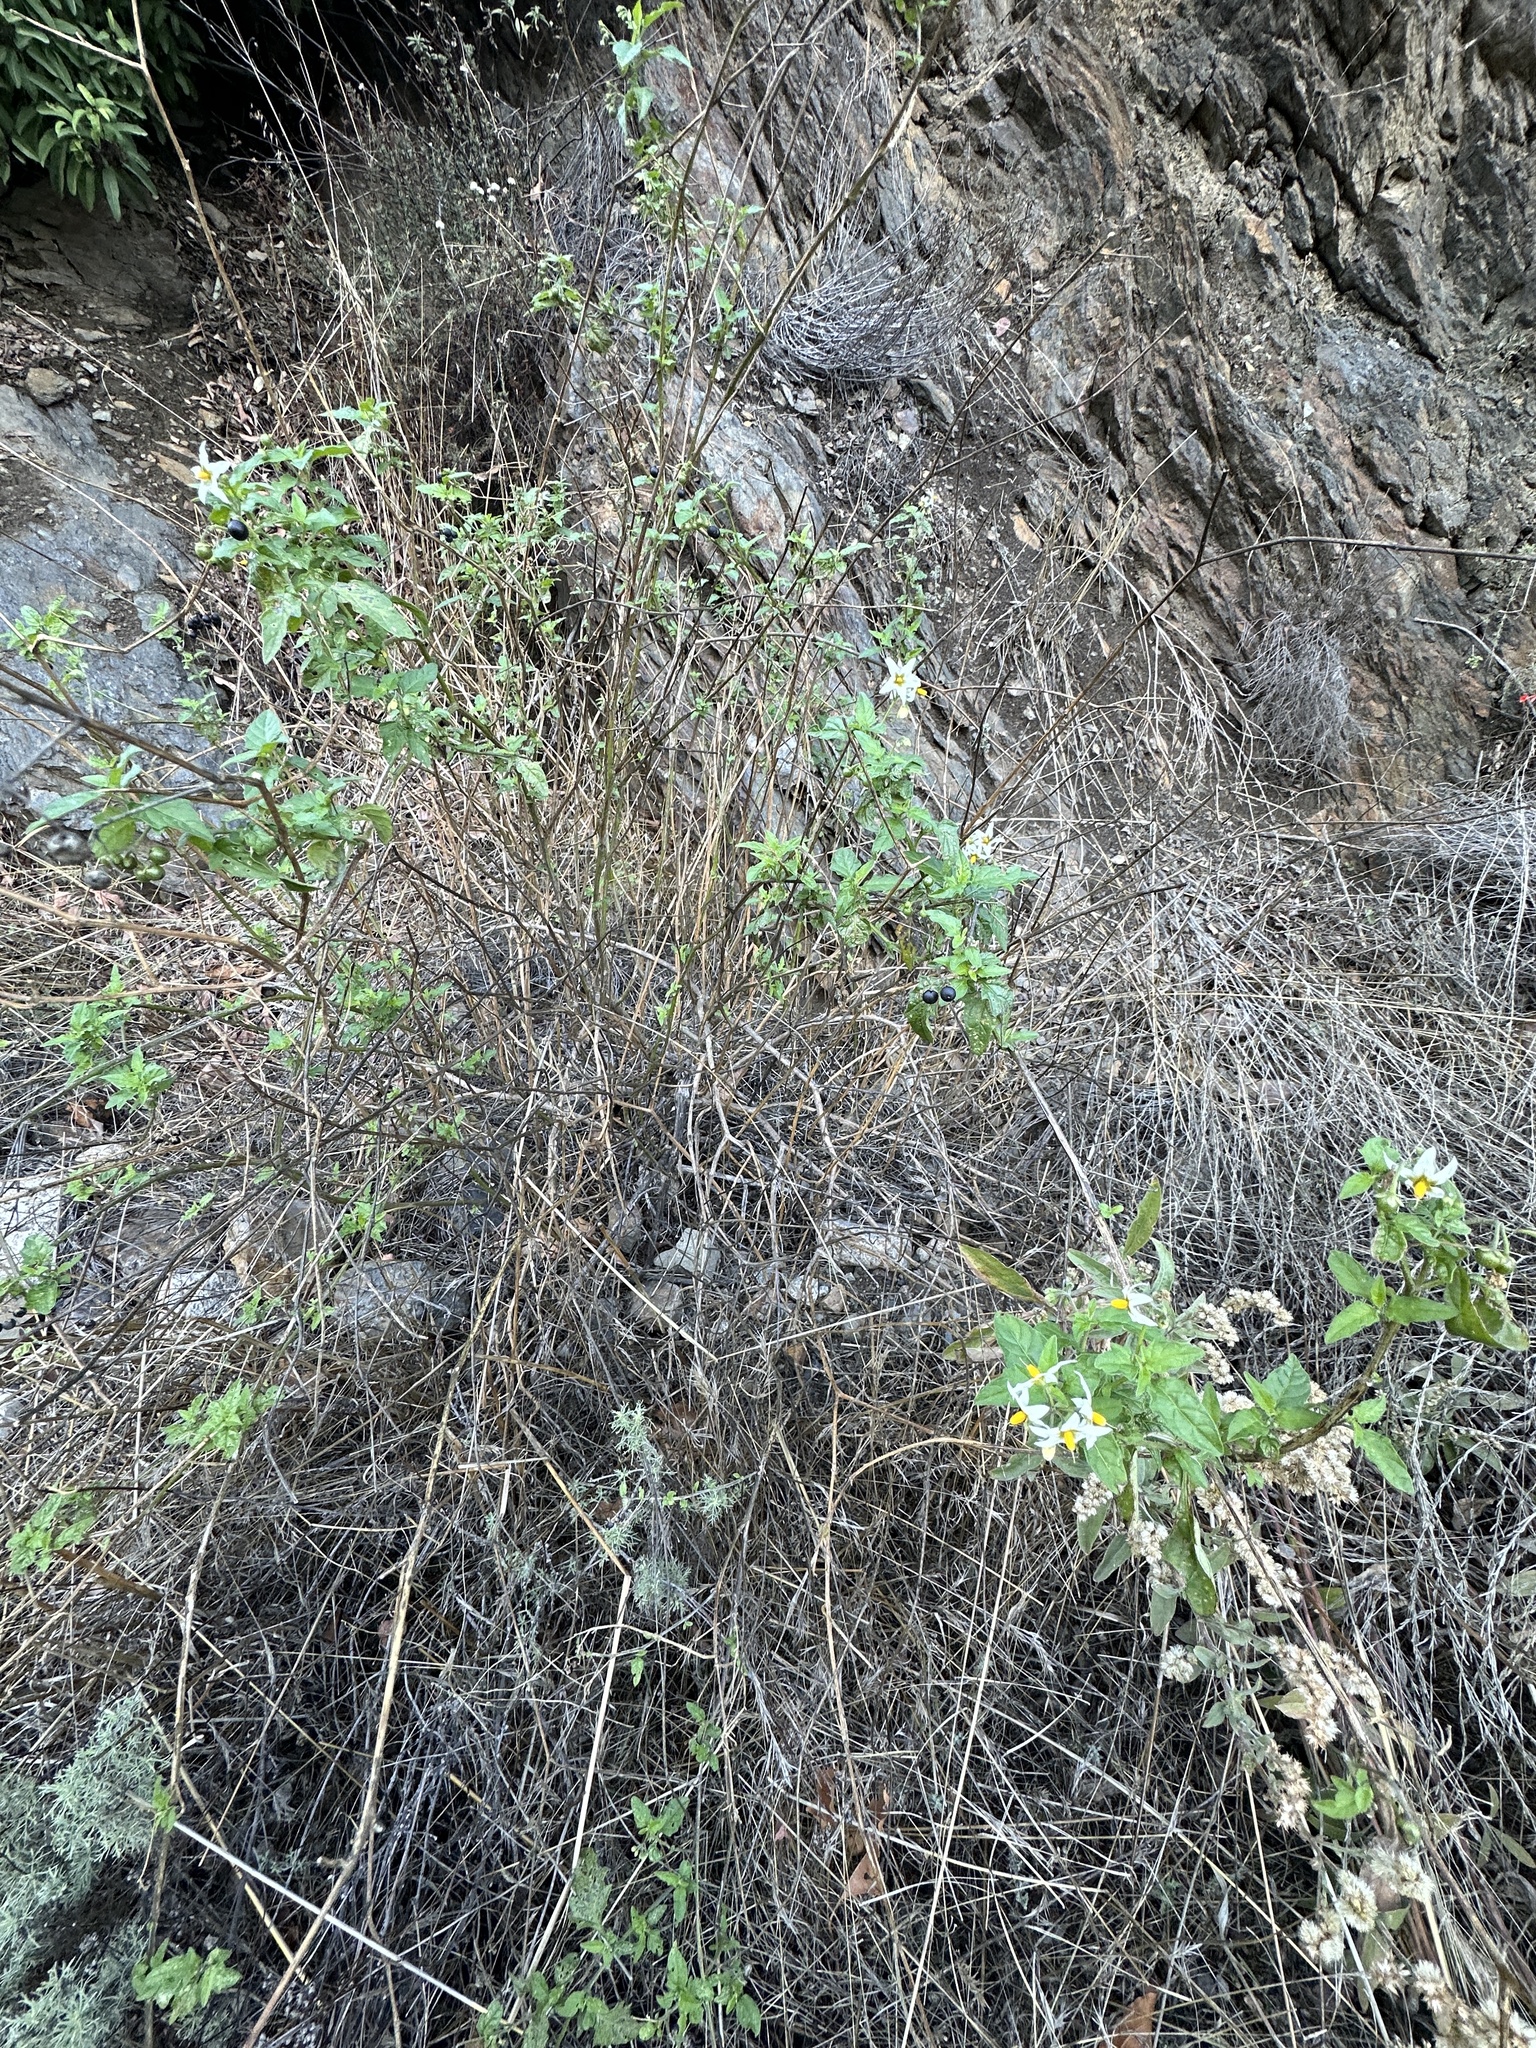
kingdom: Plantae
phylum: Tracheophyta
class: Magnoliopsida
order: Solanales
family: Solanaceae
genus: Solanum
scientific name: Solanum douglasii
